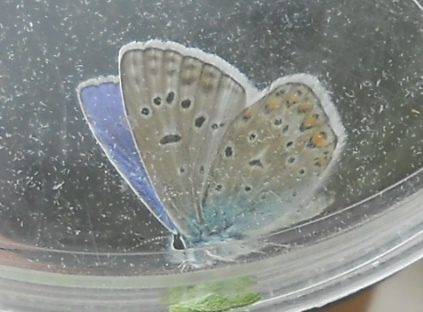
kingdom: Animalia
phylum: Arthropoda
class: Insecta
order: Lepidoptera
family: Lycaenidae
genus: Polyommatus
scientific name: Polyommatus icarus
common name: Common blue
